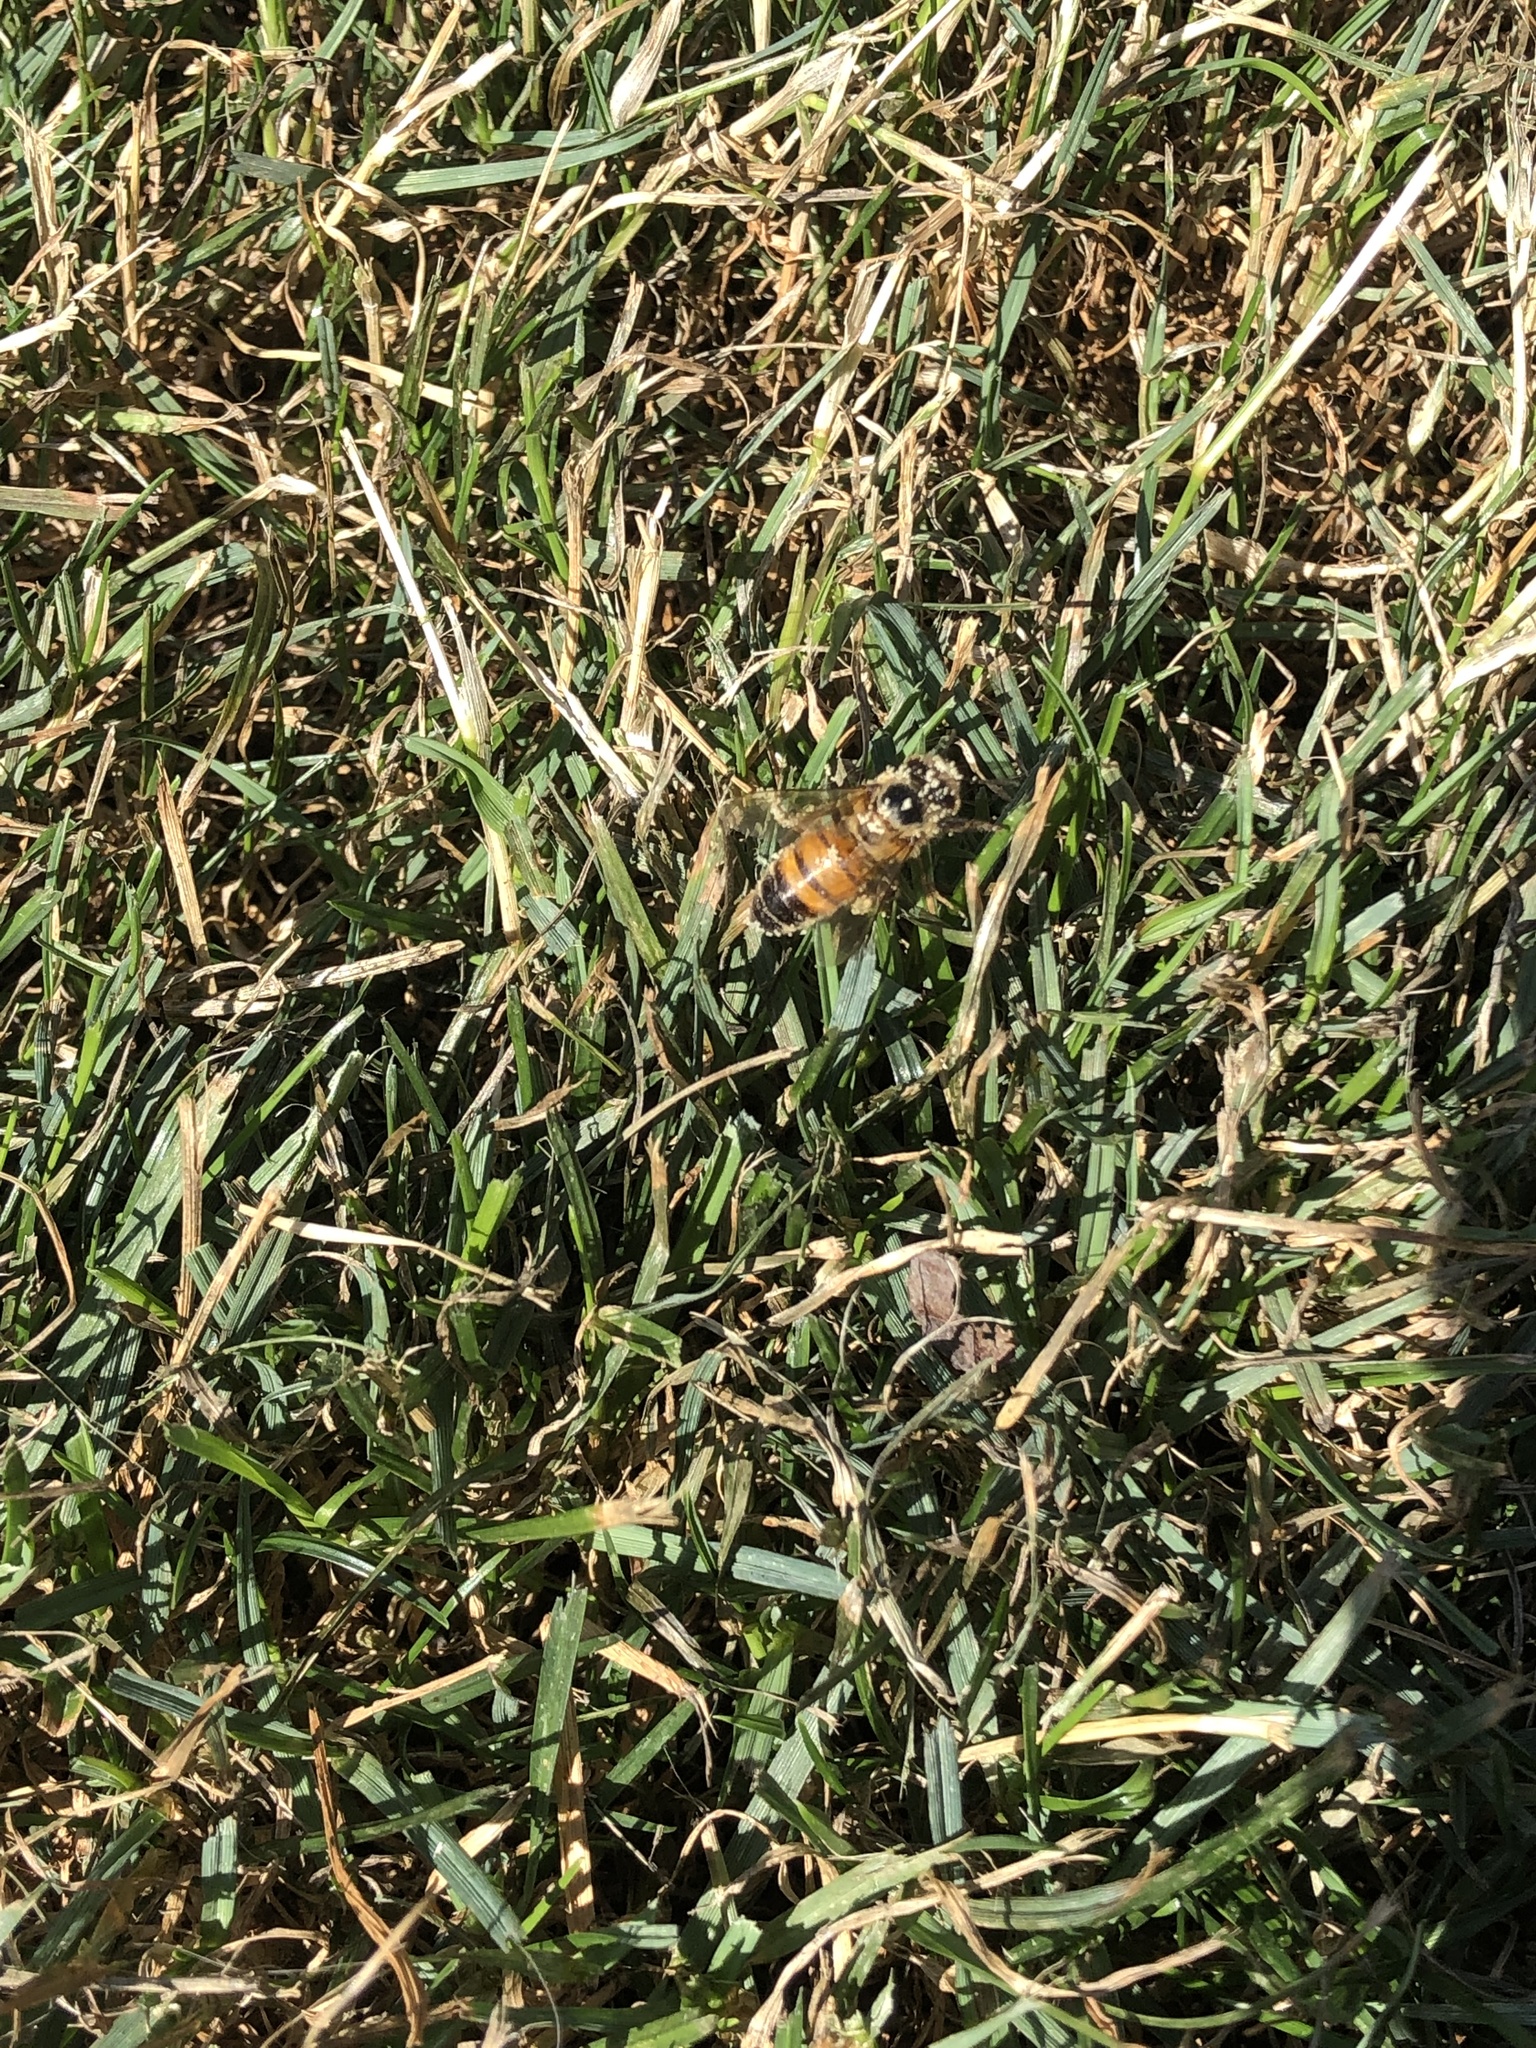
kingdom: Animalia
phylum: Arthropoda
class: Insecta
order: Hymenoptera
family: Apidae
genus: Apis
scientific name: Apis mellifera
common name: Honey bee
